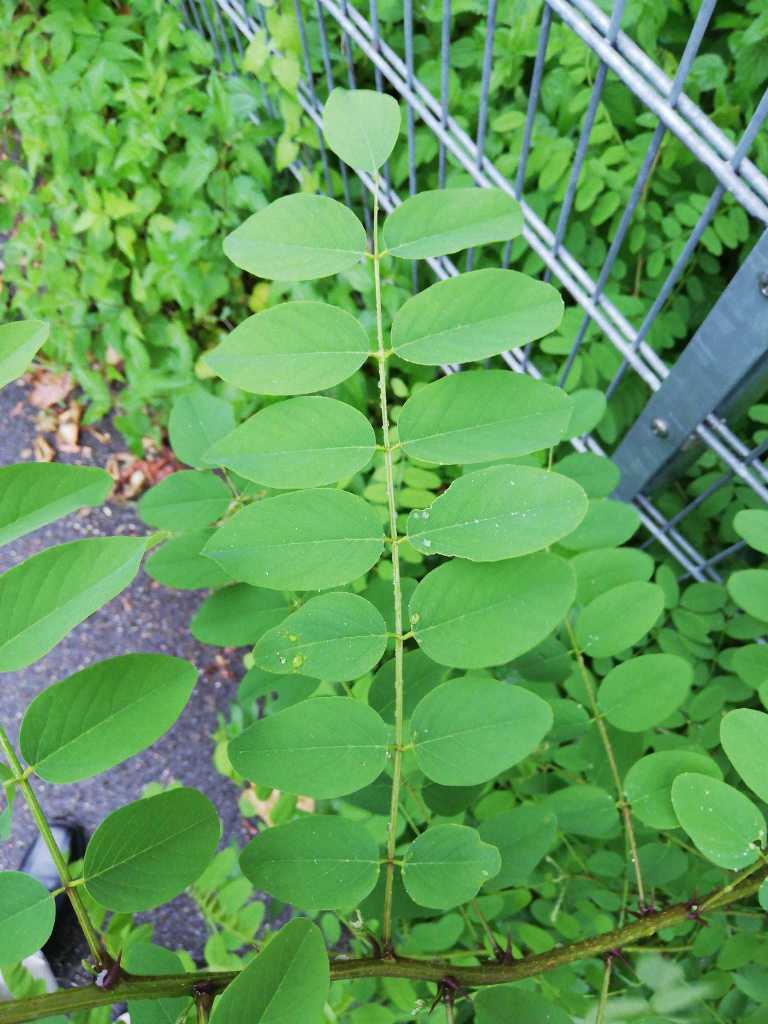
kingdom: Plantae
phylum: Tracheophyta
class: Magnoliopsida
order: Fabales
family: Fabaceae
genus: Robinia
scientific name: Robinia pseudoacacia
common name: Black locust
